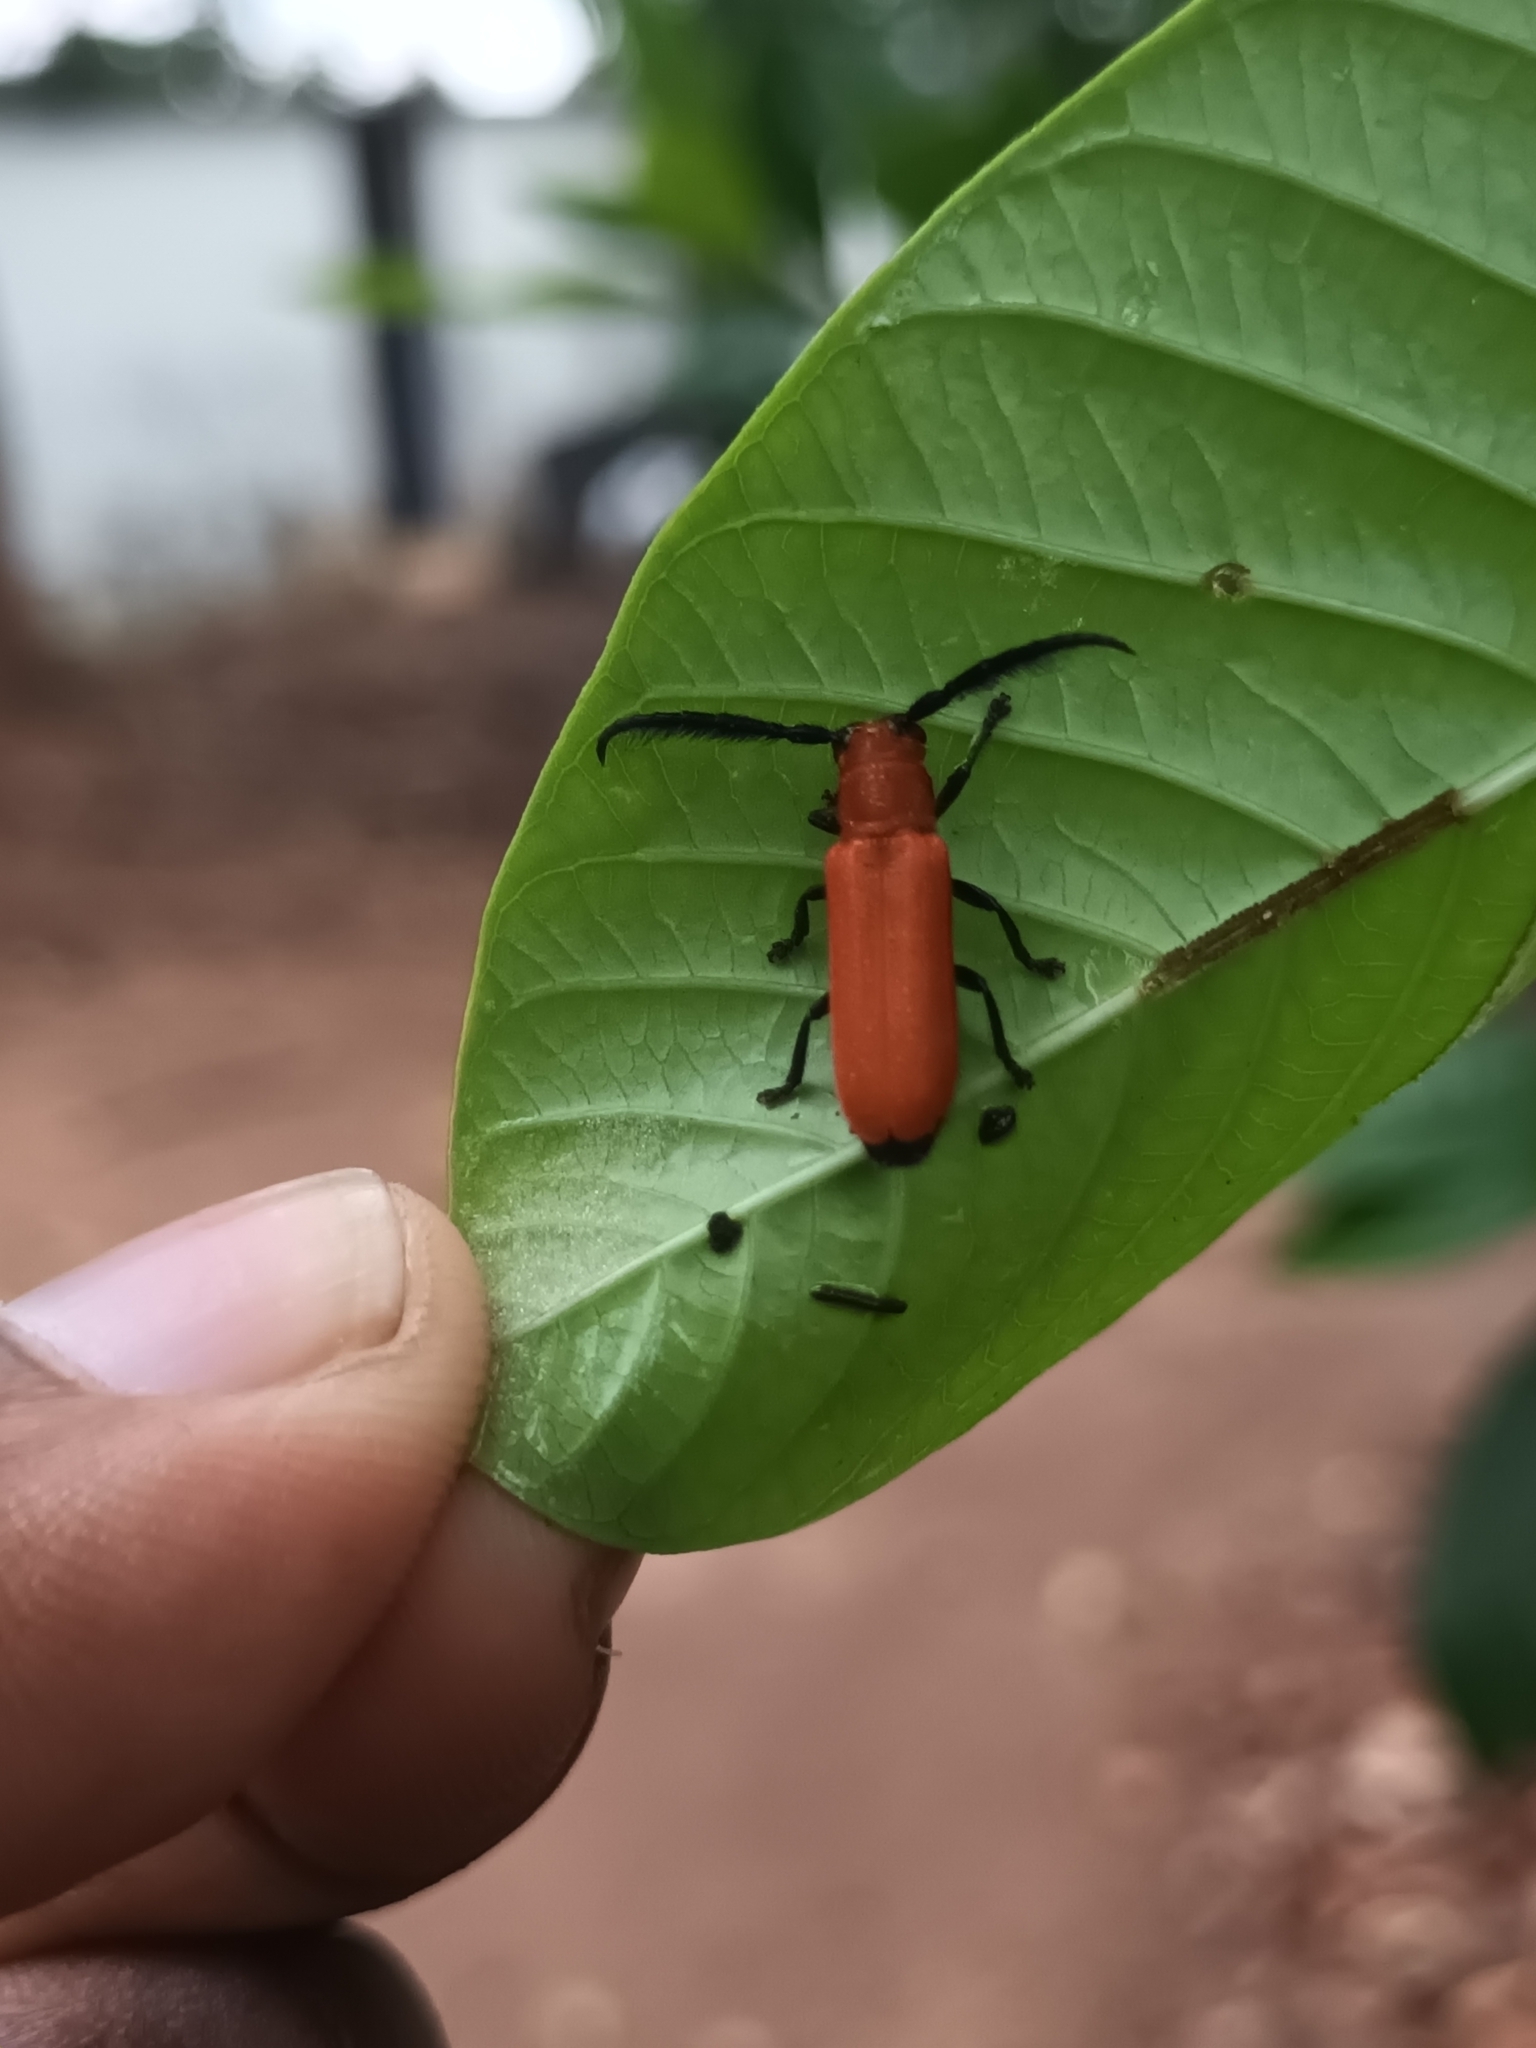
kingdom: Animalia
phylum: Arthropoda
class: Insecta
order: Coleoptera
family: Cerambycidae
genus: Cleonaria
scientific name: Cleonaria bicolor
